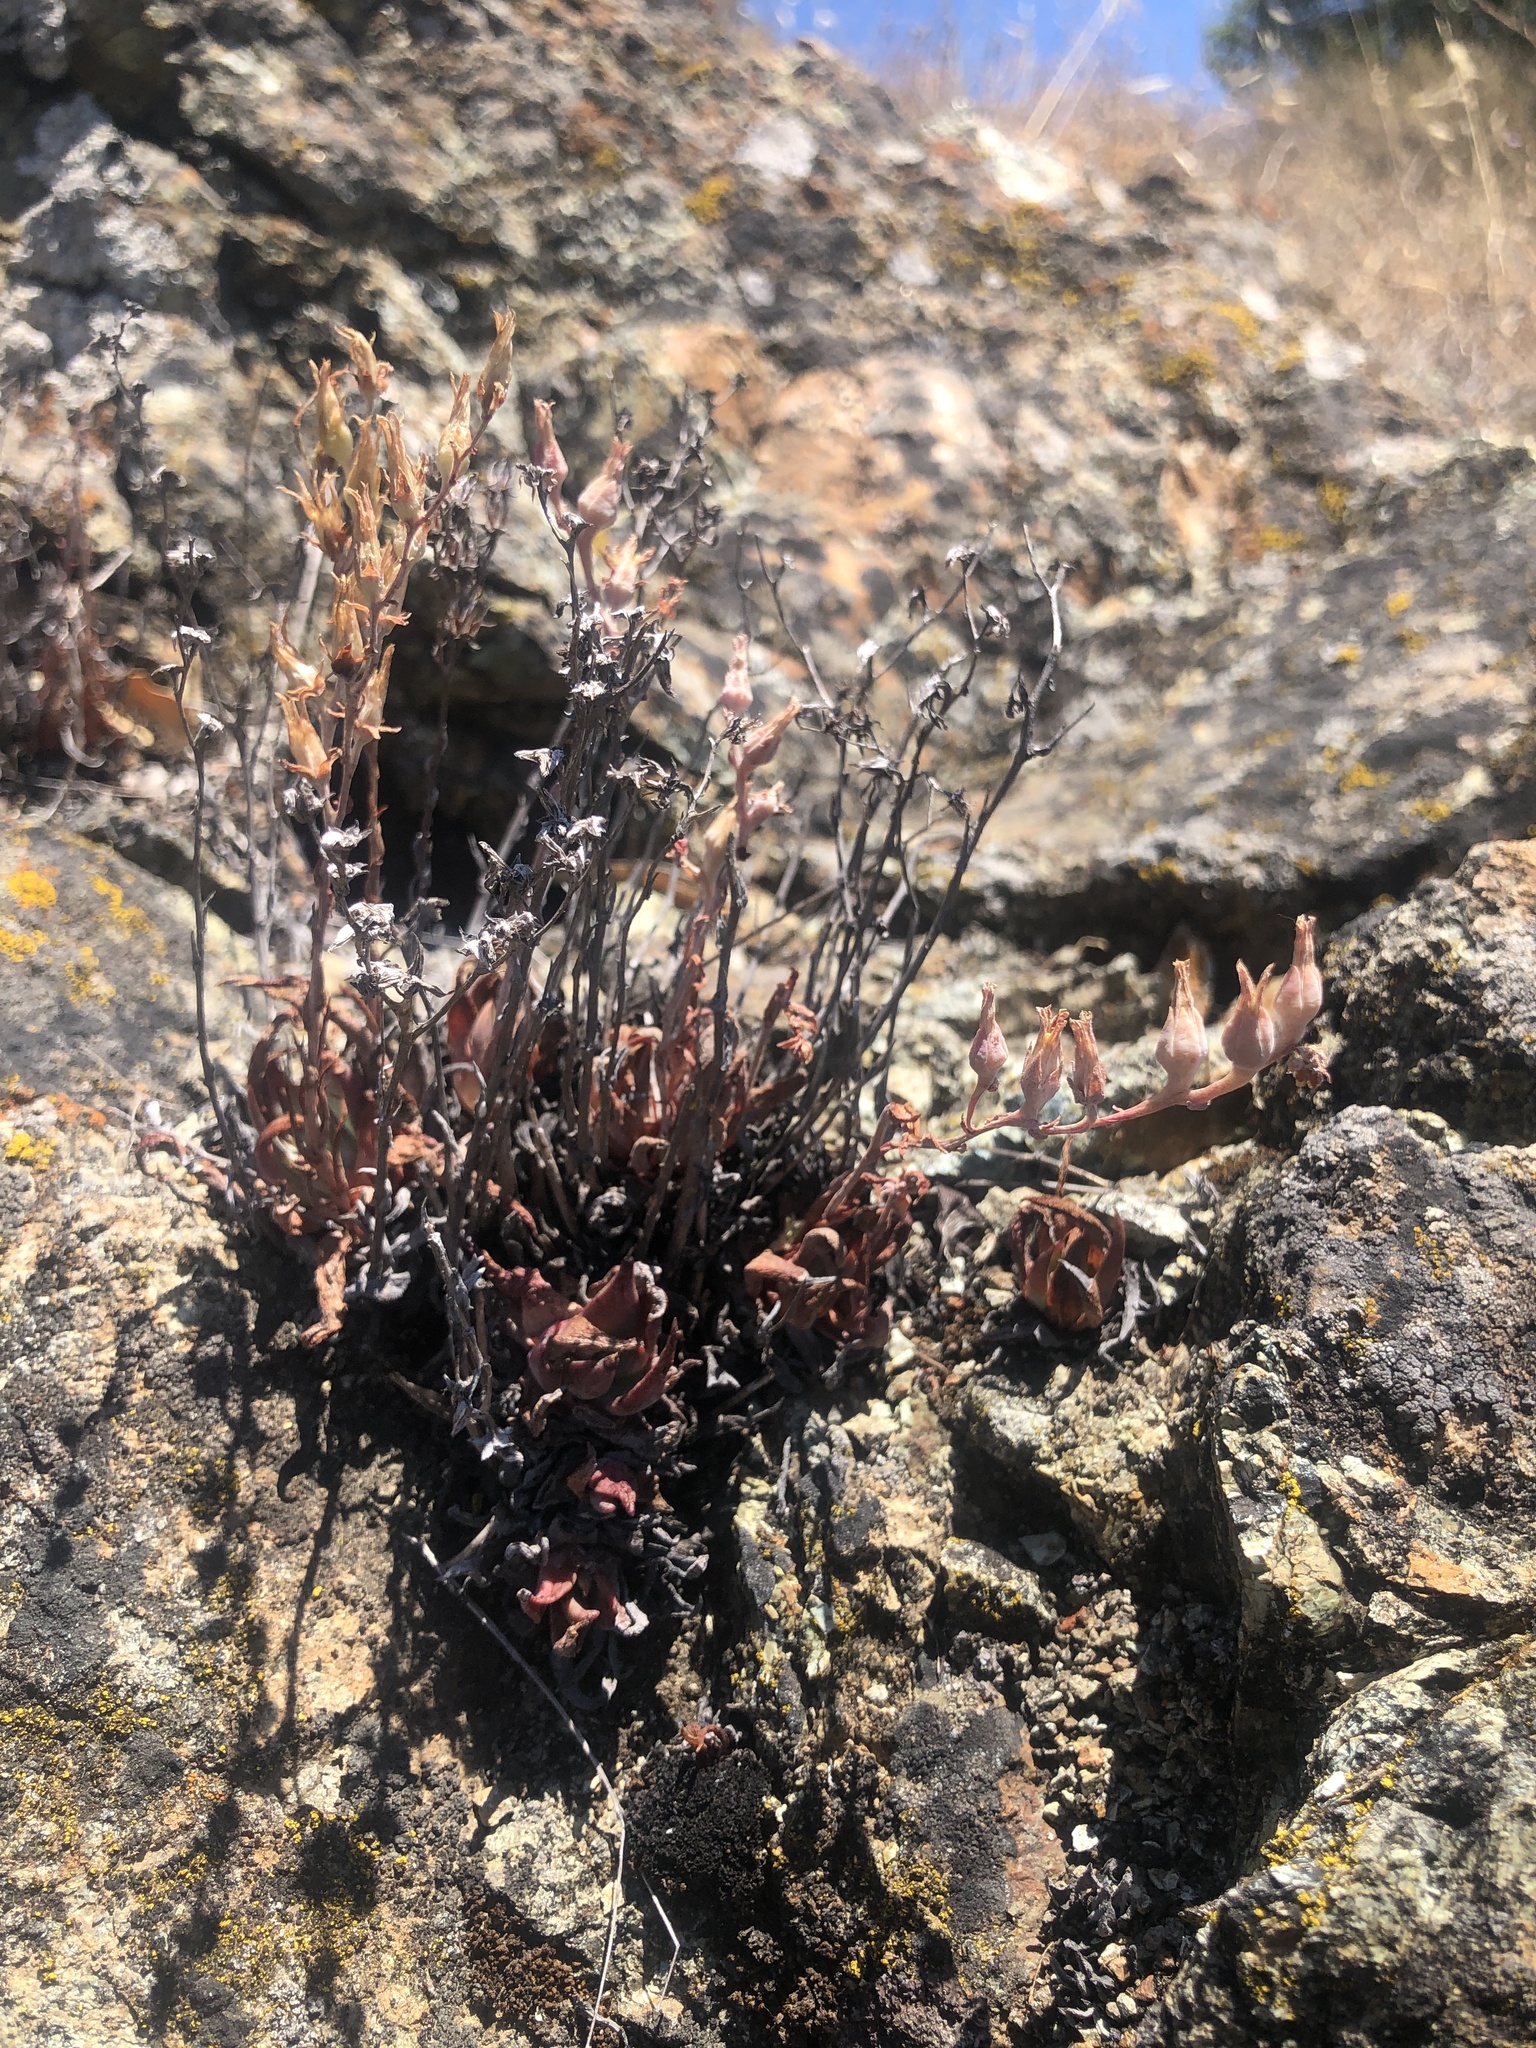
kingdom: Plantae
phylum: Tracheophyta
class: Magnoliopsida
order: Saxifragales
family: Crassulaceae
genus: Dudleya
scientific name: Dudleya abramsii
